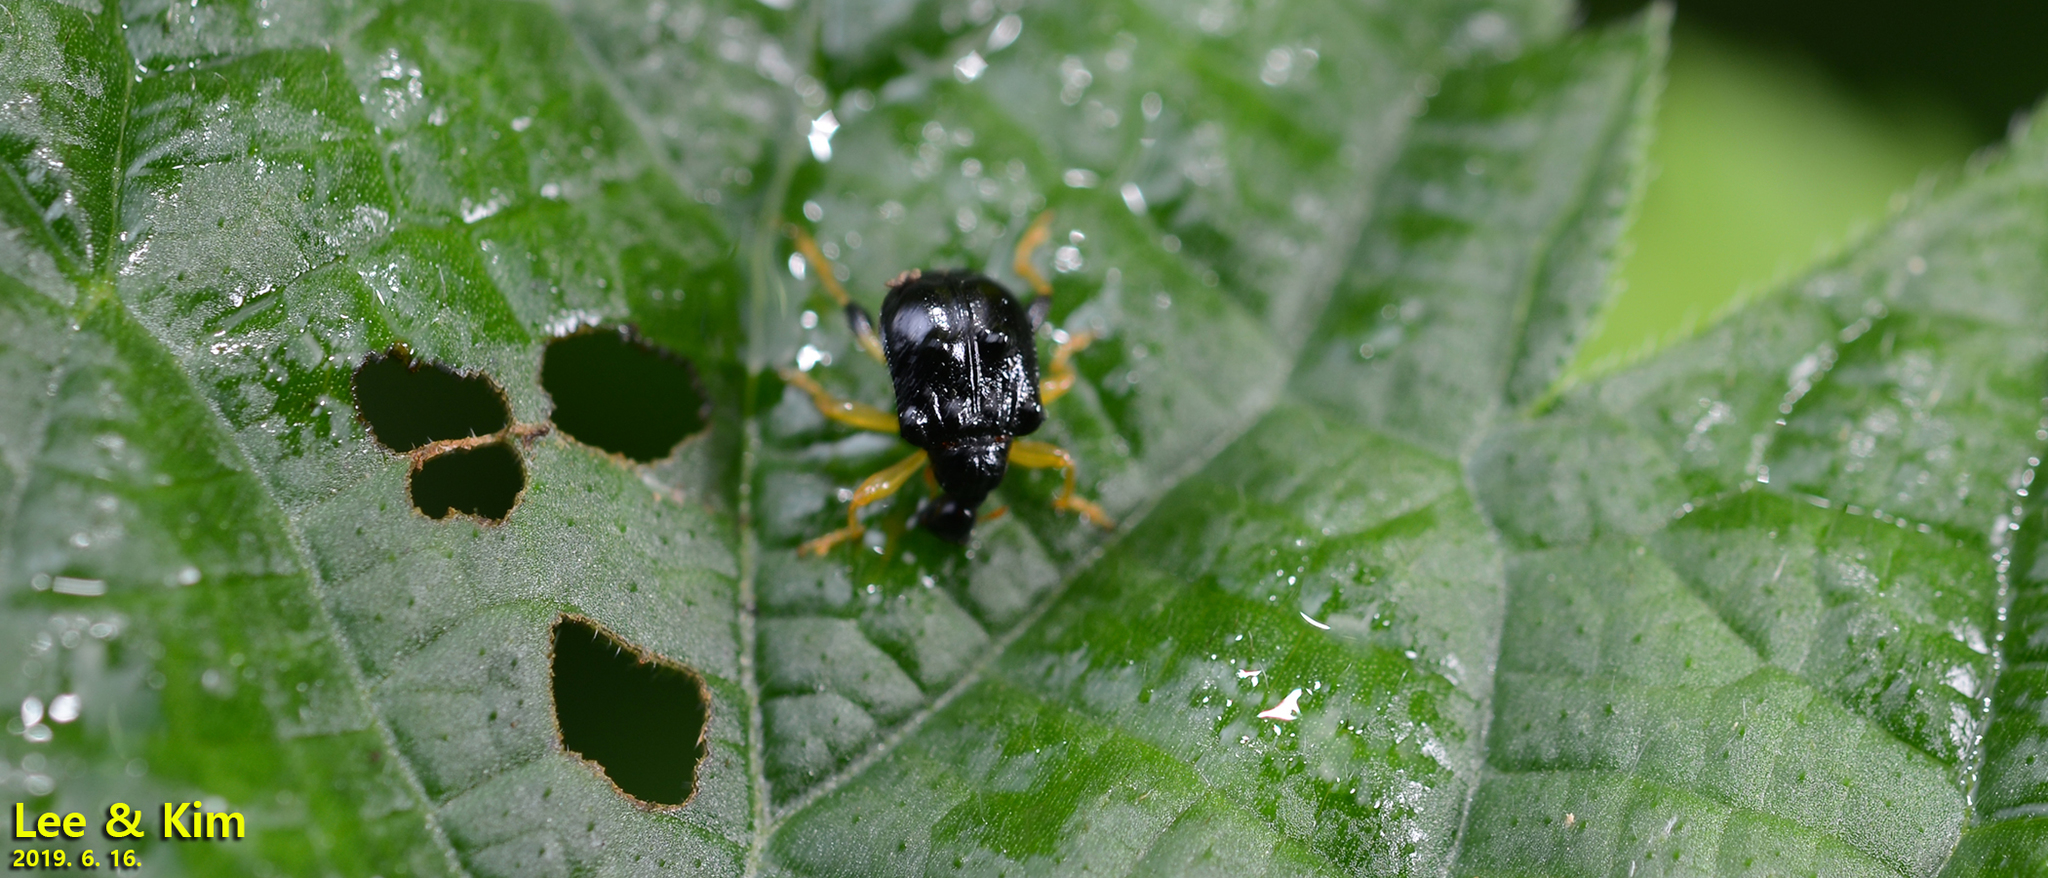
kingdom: Animalia
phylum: Arthropoda
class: Insecta
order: Coleoptera
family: Attelabidae
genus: Phymatapoderus
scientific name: Phymatapoderus flavimanus
